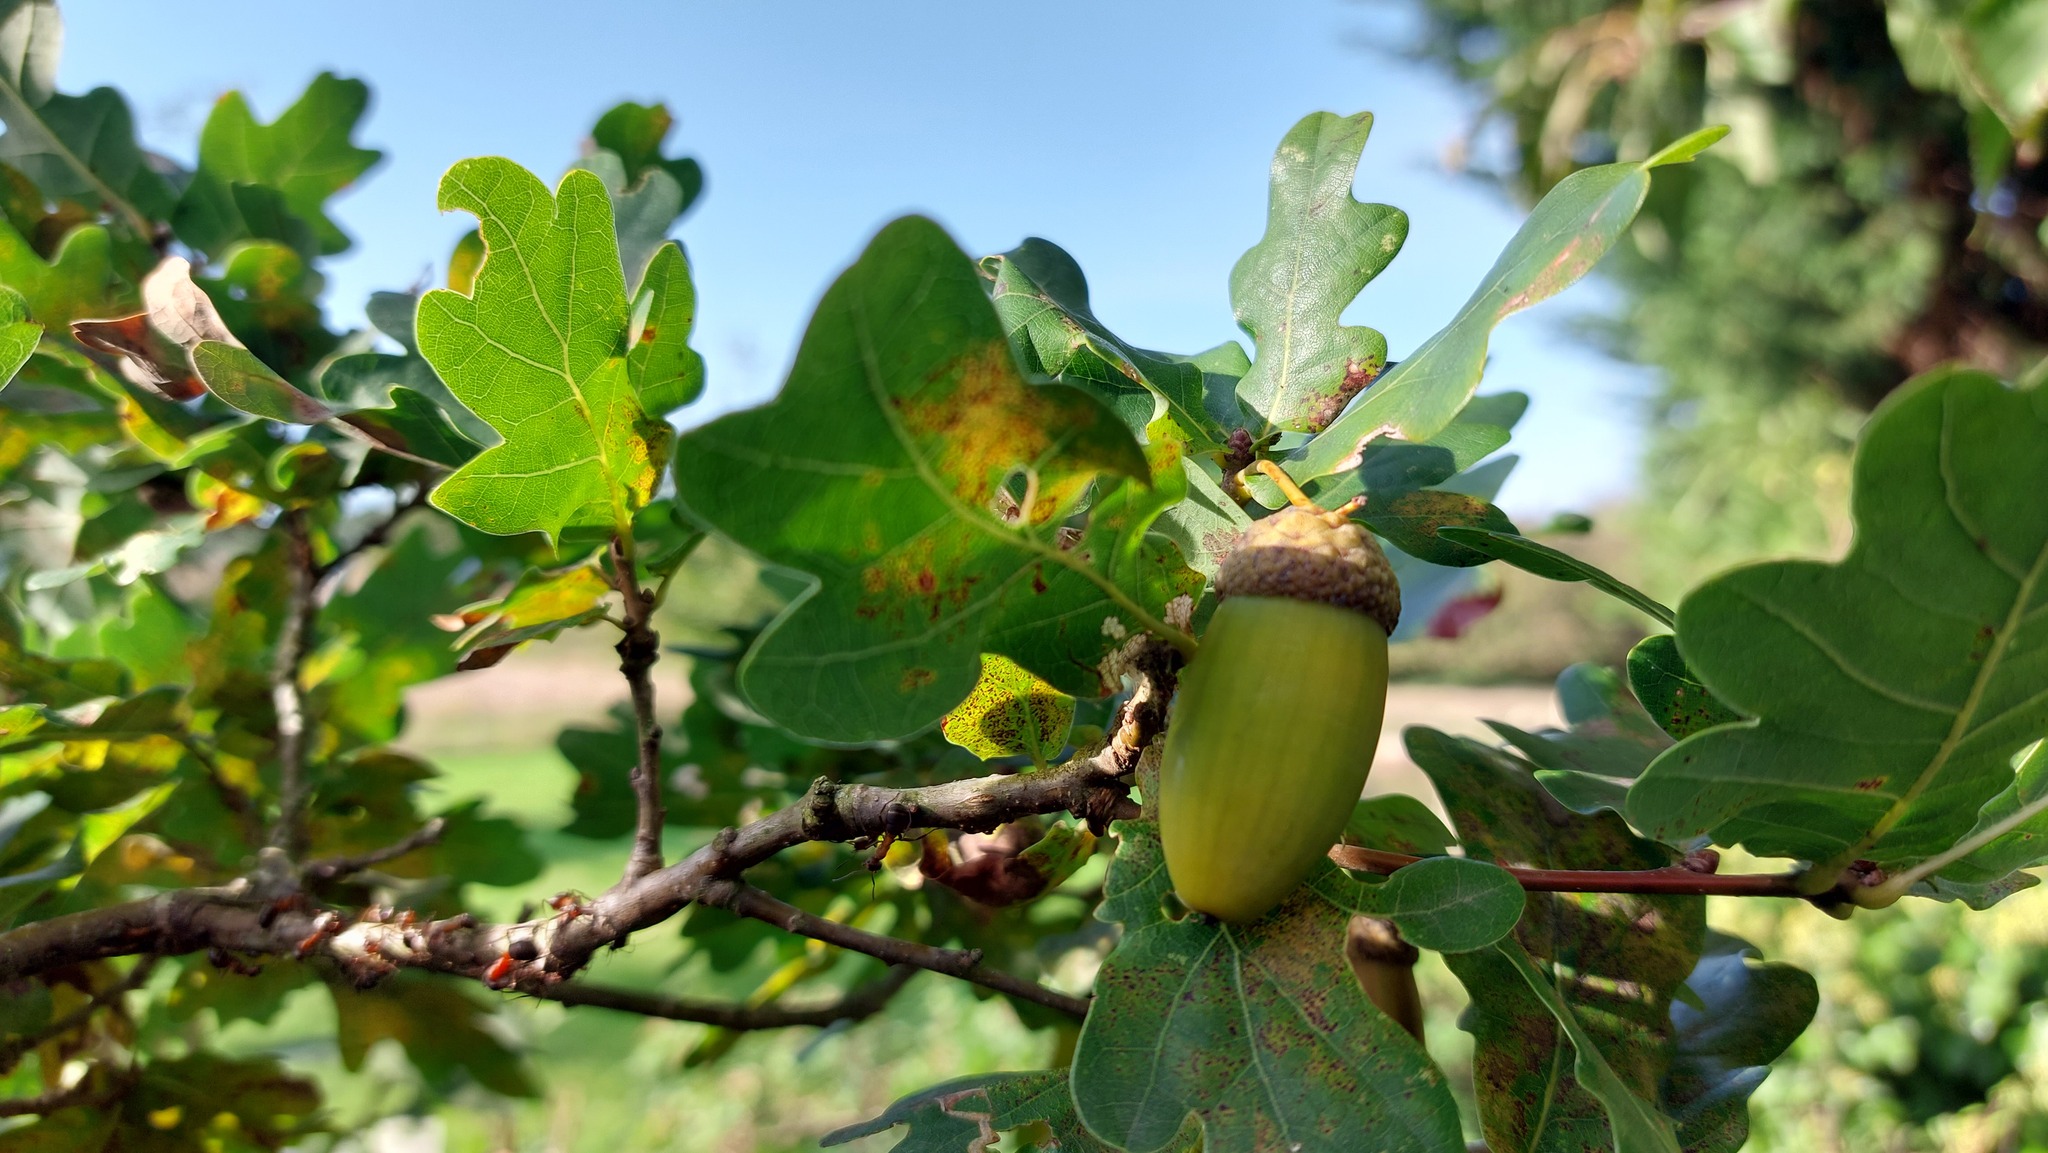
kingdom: Plantae
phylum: Tracheophyta
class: Magnoliopsida
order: Fagales
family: Fagaceae
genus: Quercus
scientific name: Quercus robur
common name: Pedunculate oak
